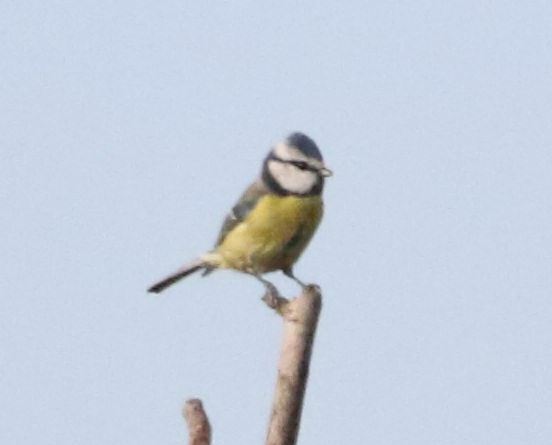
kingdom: Animalia
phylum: Chordata
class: Aves
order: Passeriformes
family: Paridae
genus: Cyanistes
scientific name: Cyanistes caeruleus
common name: Eurasian blue tit
